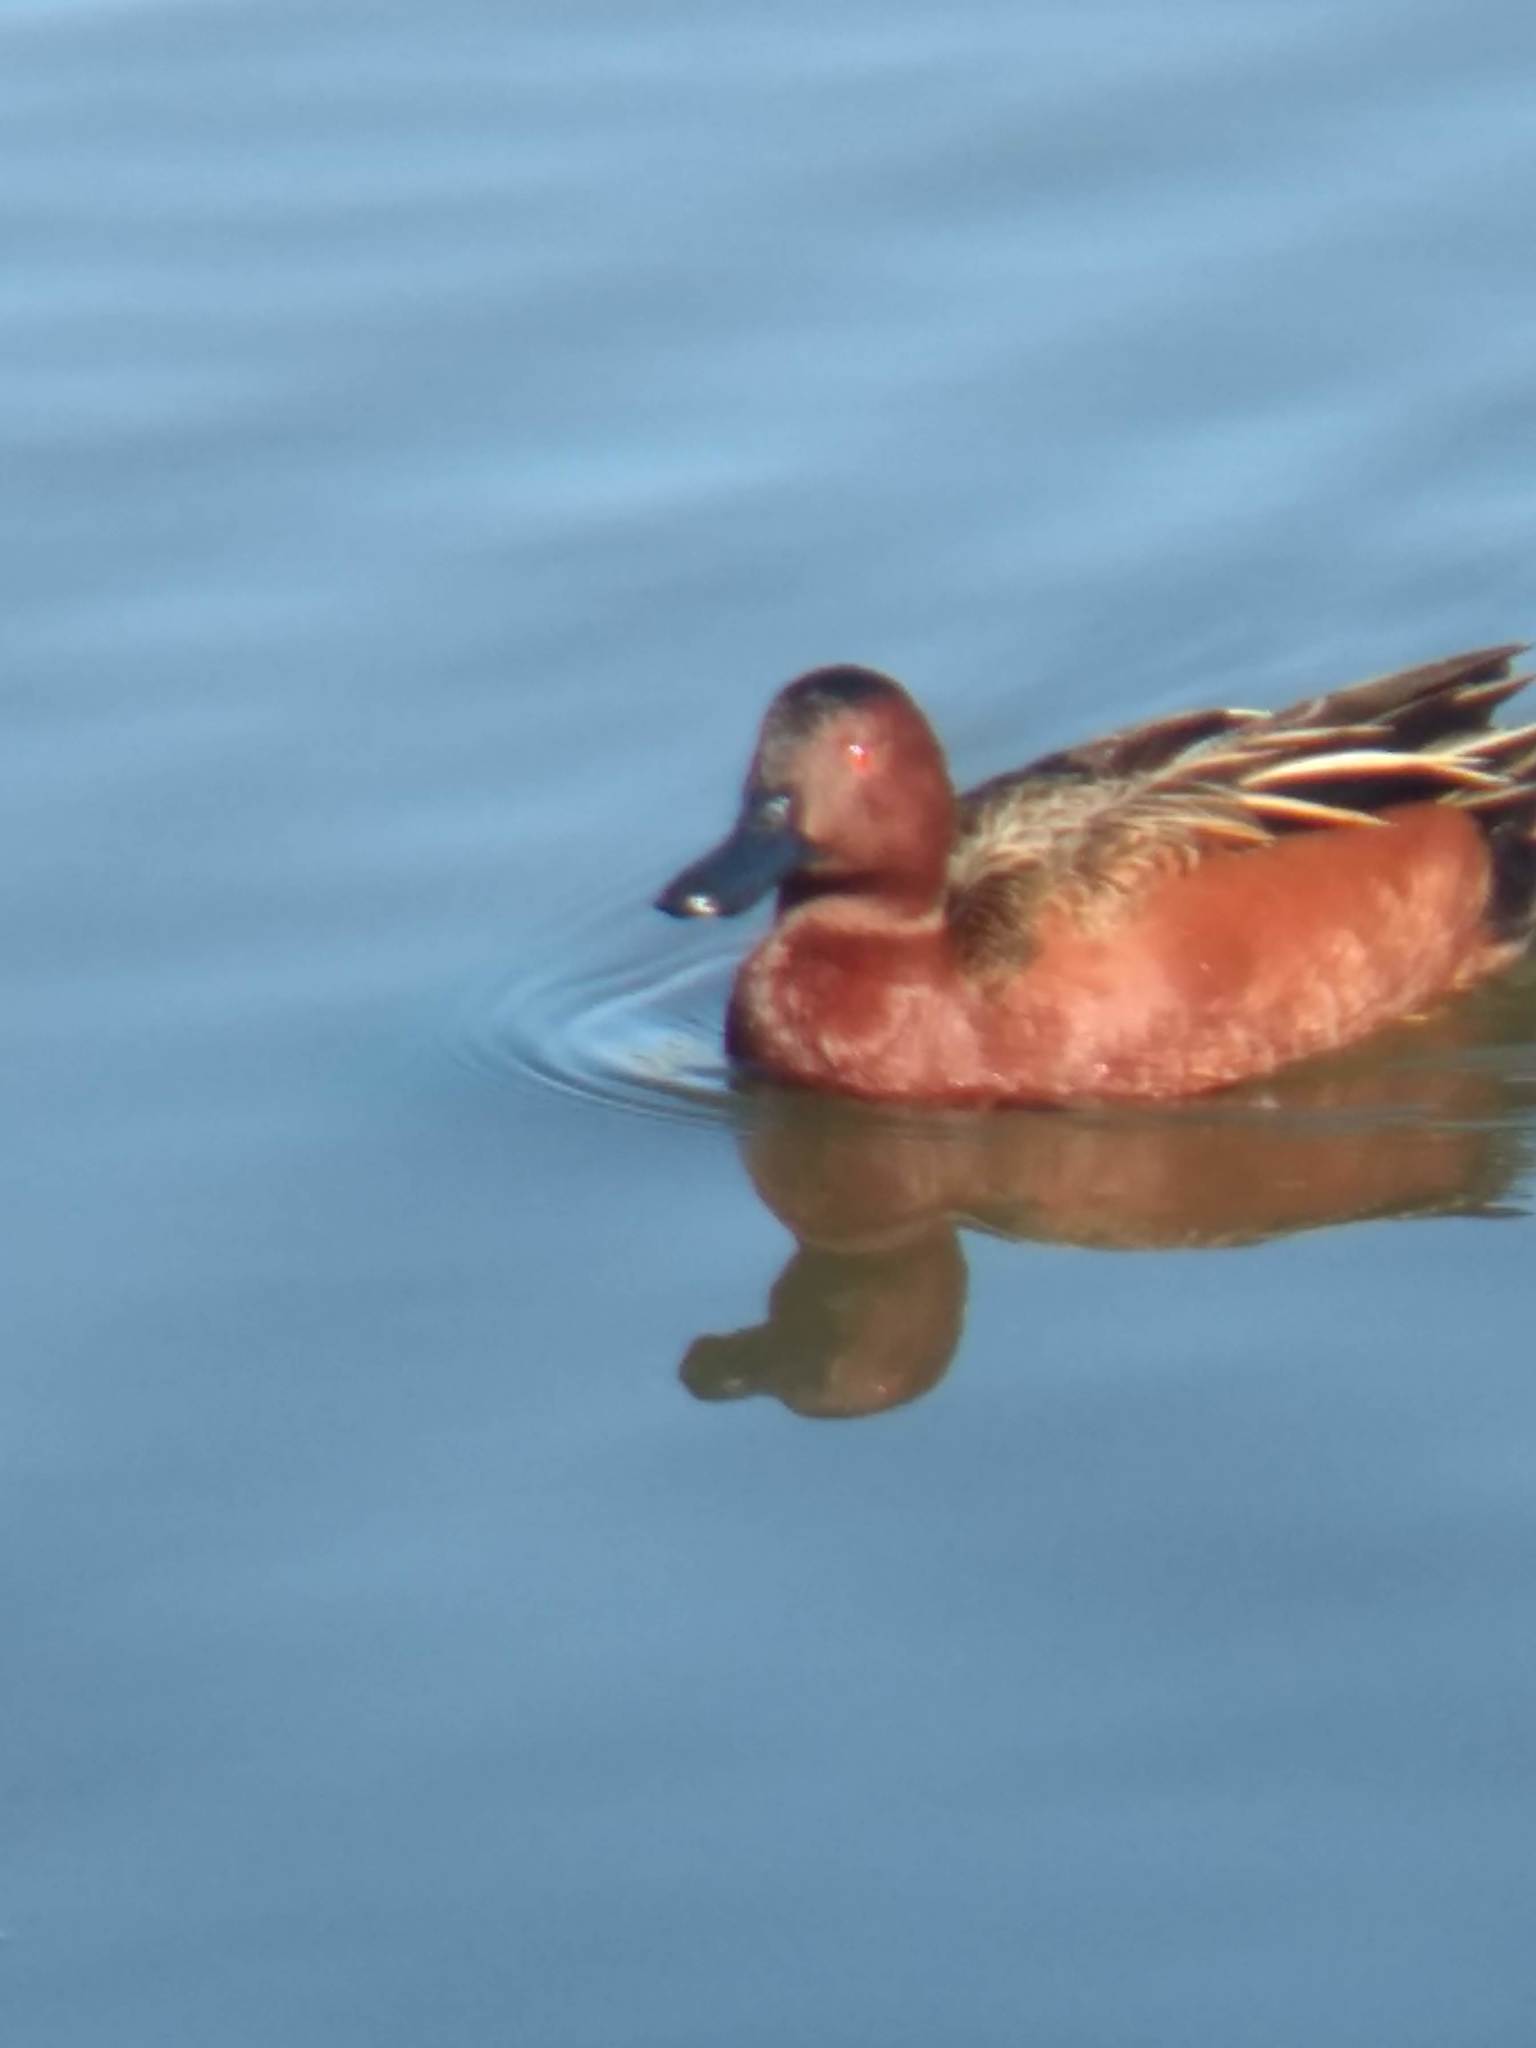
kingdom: Animalia
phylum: Chordata
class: Aves
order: Anseriformes
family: Anatidae
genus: Spatula
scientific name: Spatula cyanoptera
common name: Cinnamon teal
